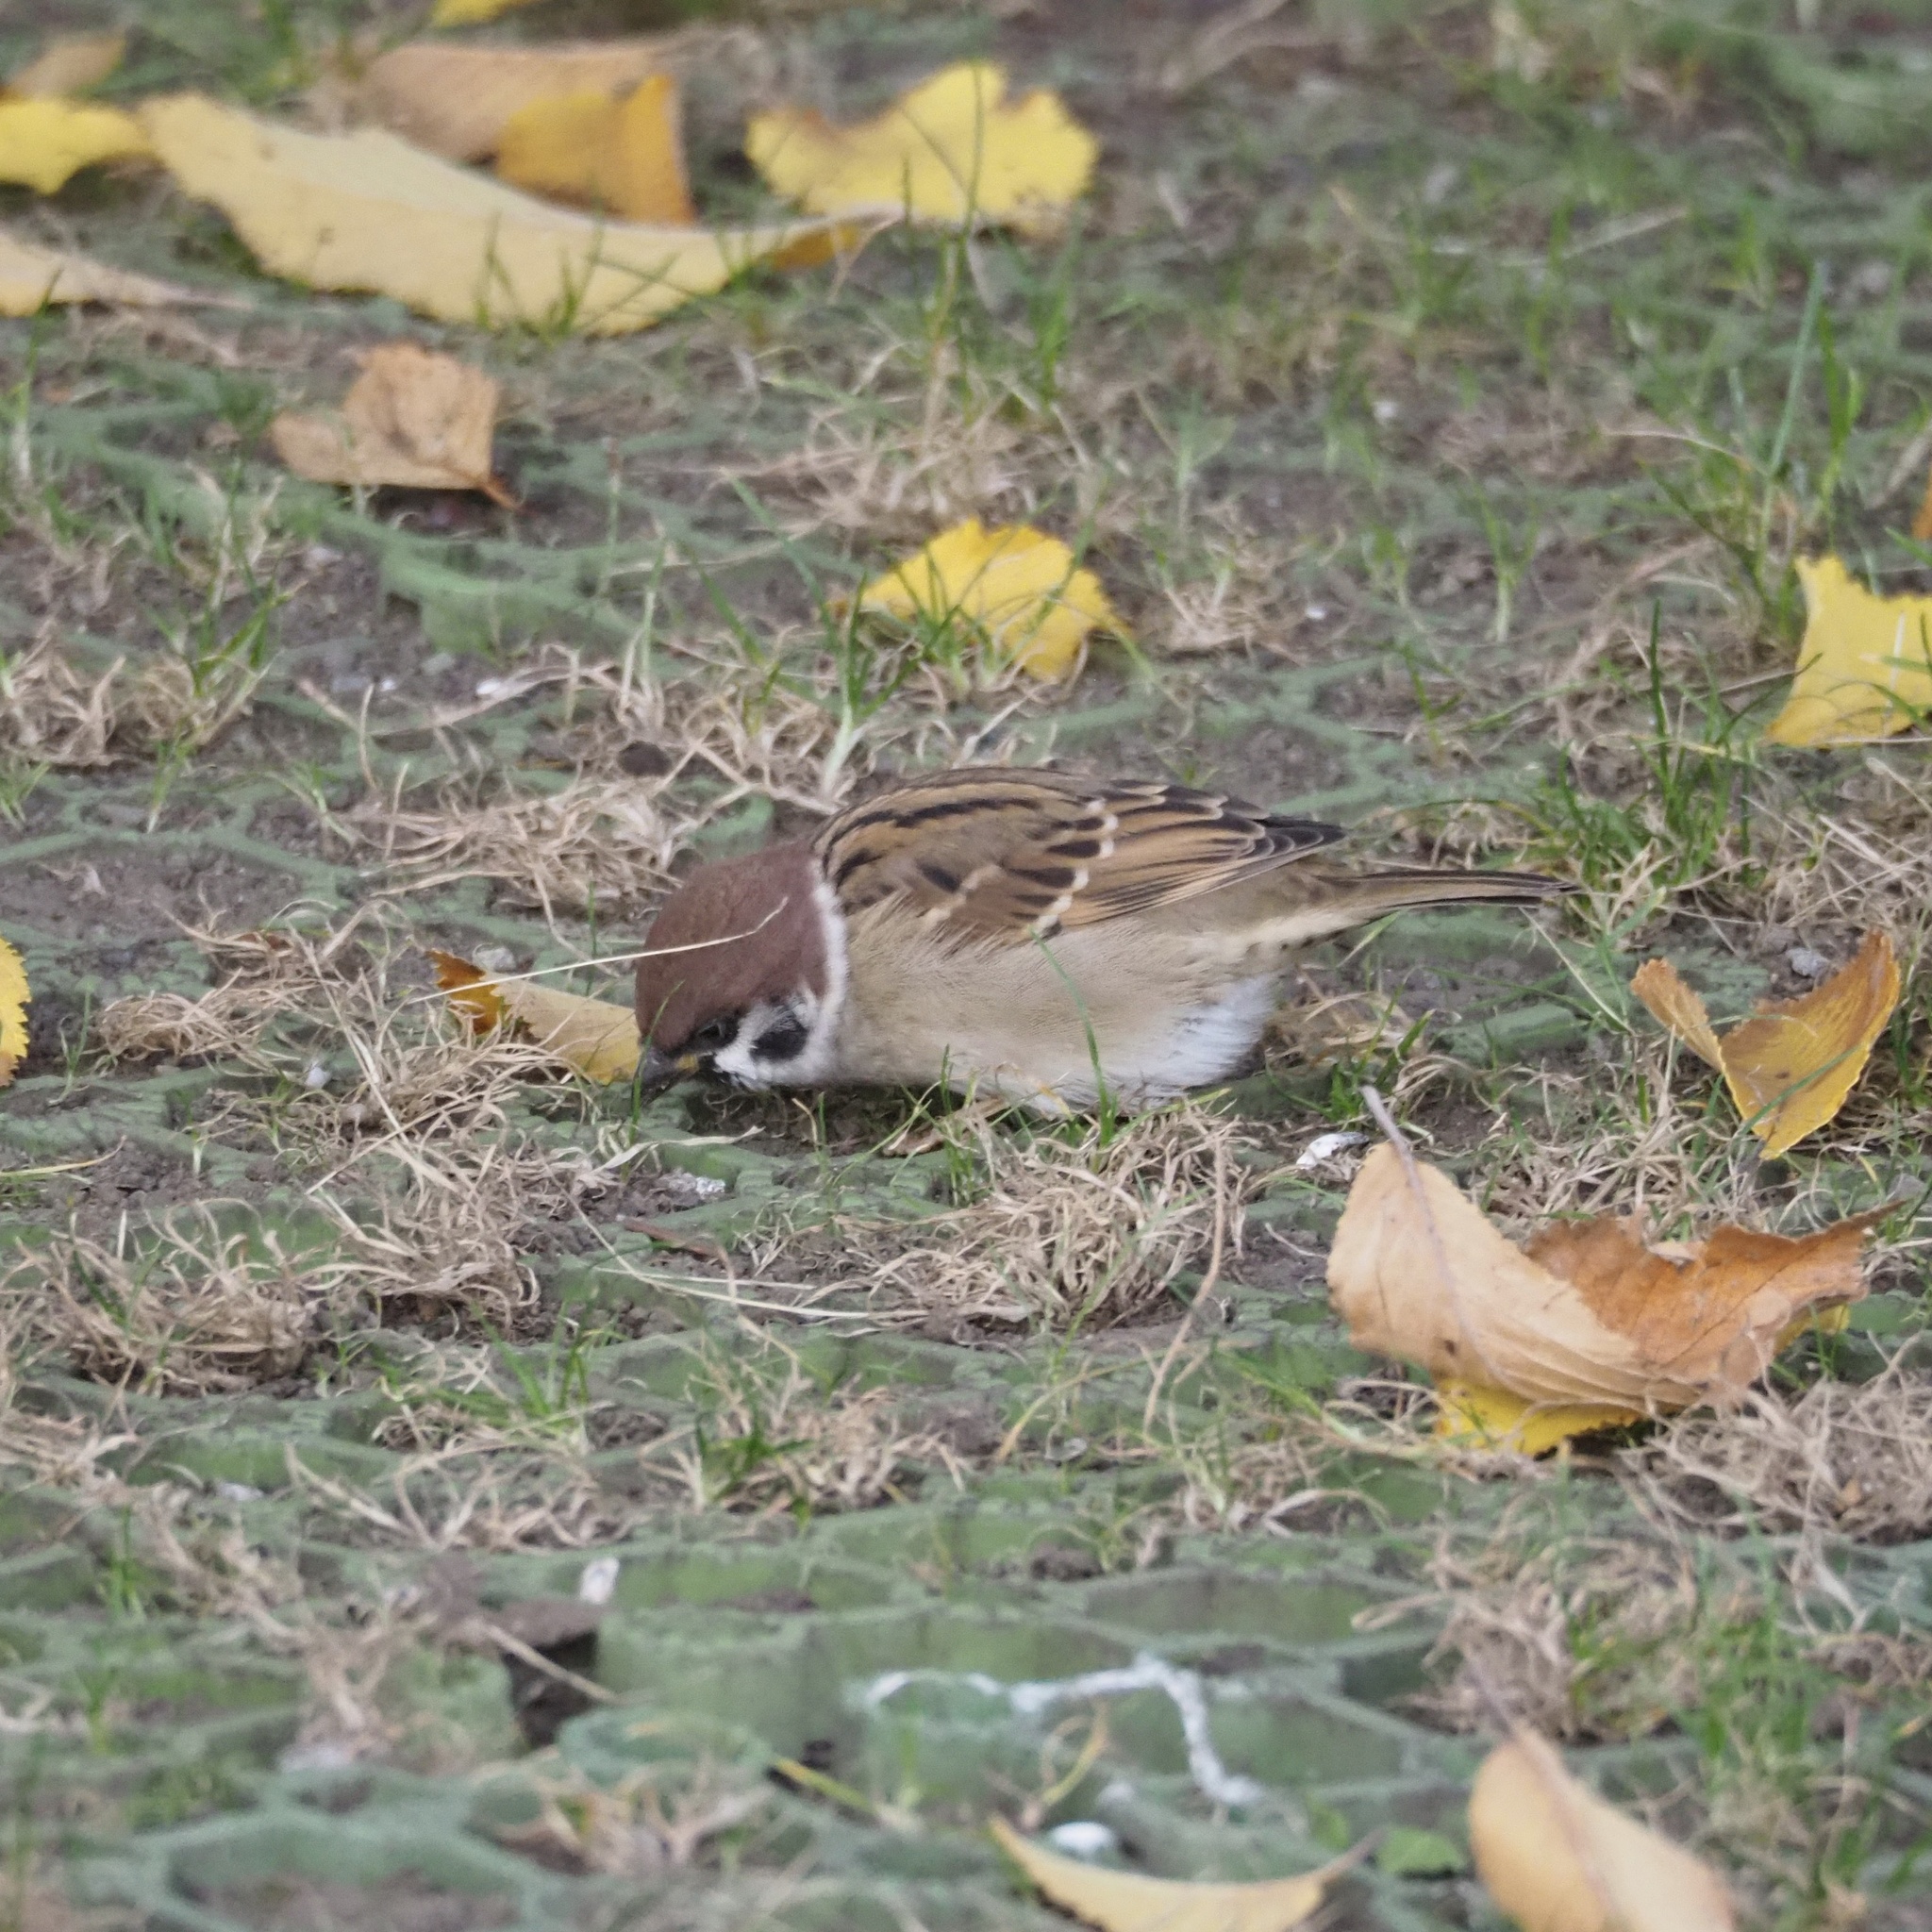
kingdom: Animalia
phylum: Chordata
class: Aves
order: Passeriformes
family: Passeridae
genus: Passer
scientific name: Passer montanus
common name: Eurasian tree sparrow
